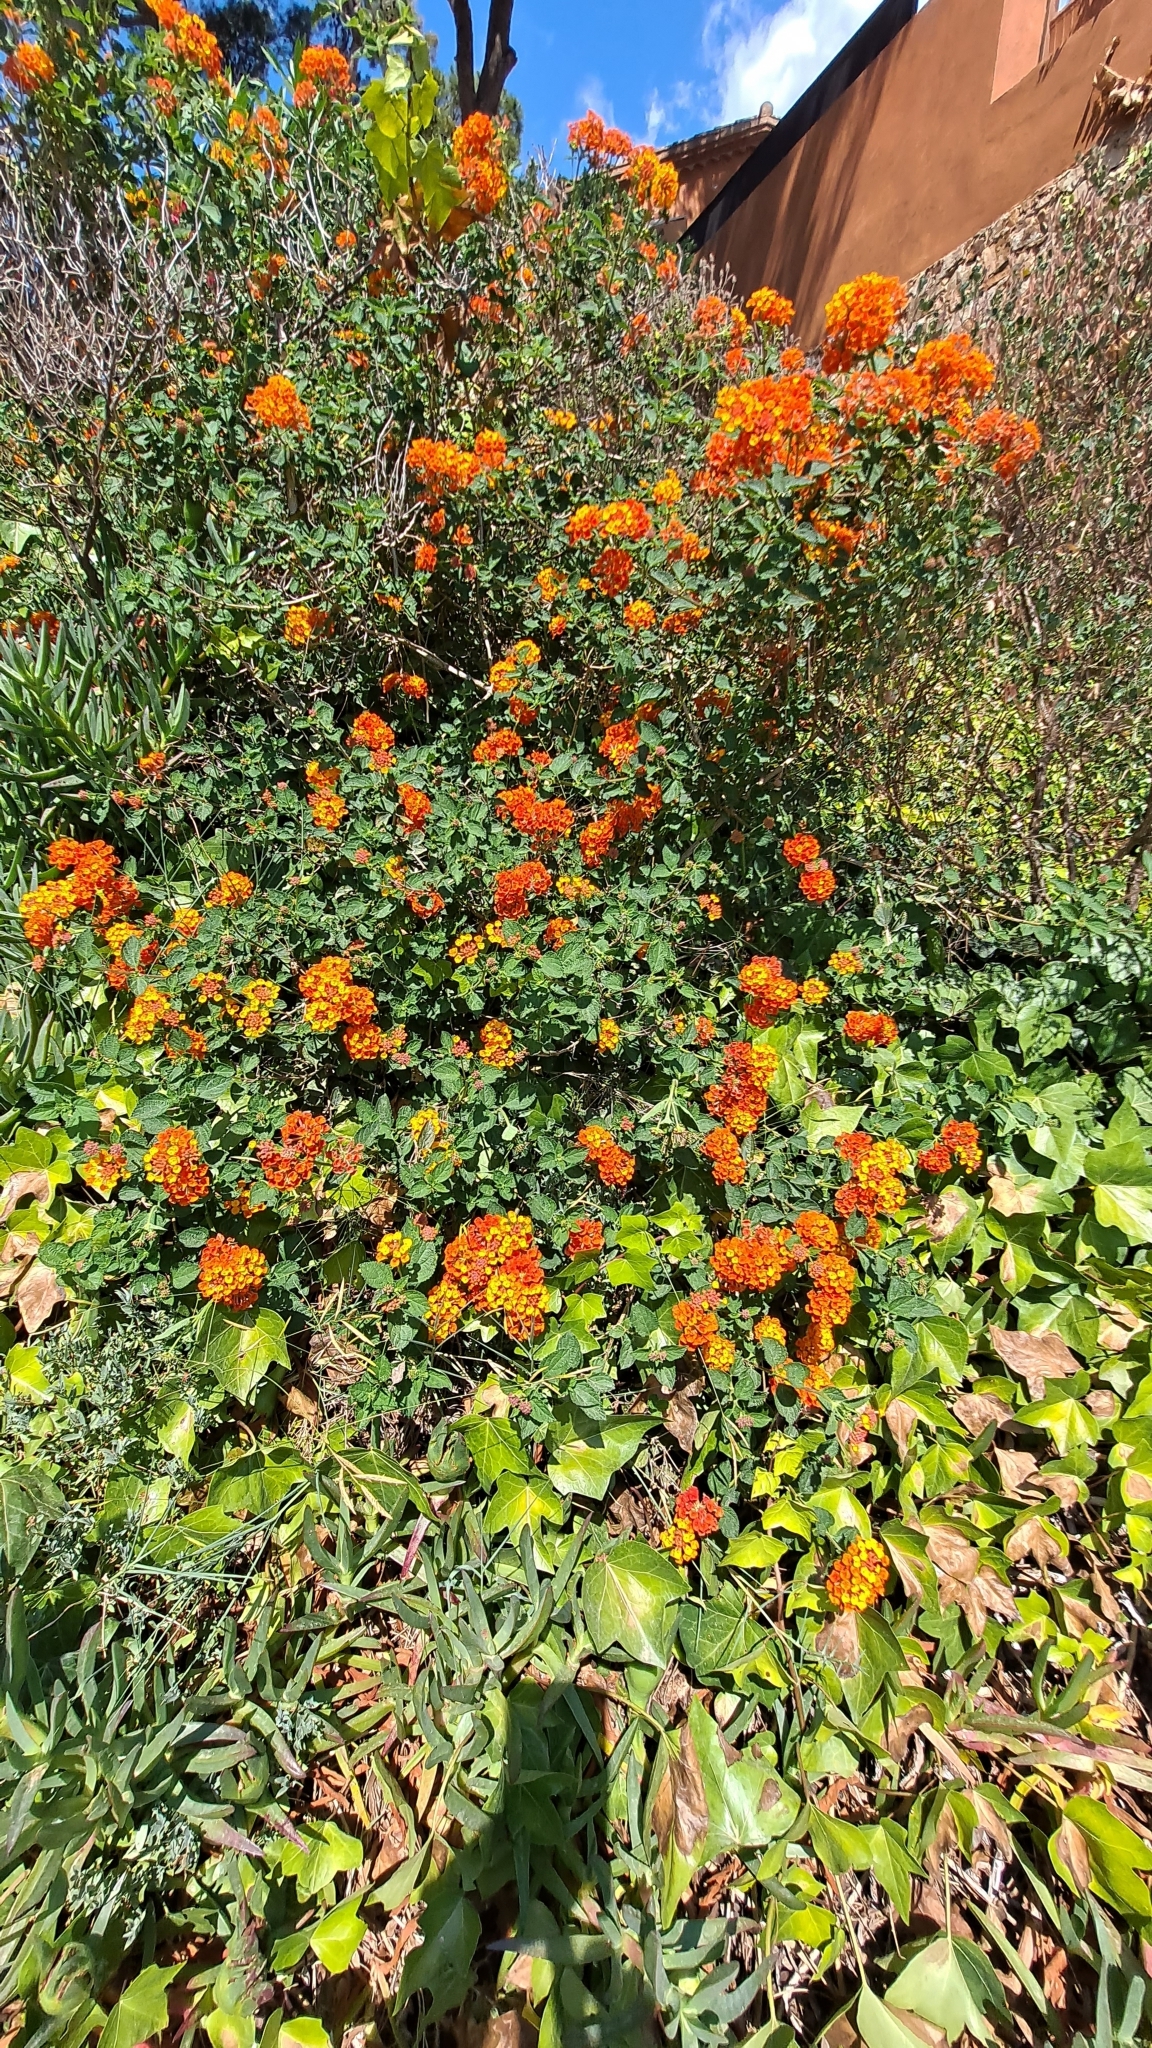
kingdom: Plantae
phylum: Tracheophyta
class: Magnoliopsida
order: Lamiales
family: Verbenaceae
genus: Lantana
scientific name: Lantana camara
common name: Lantana
